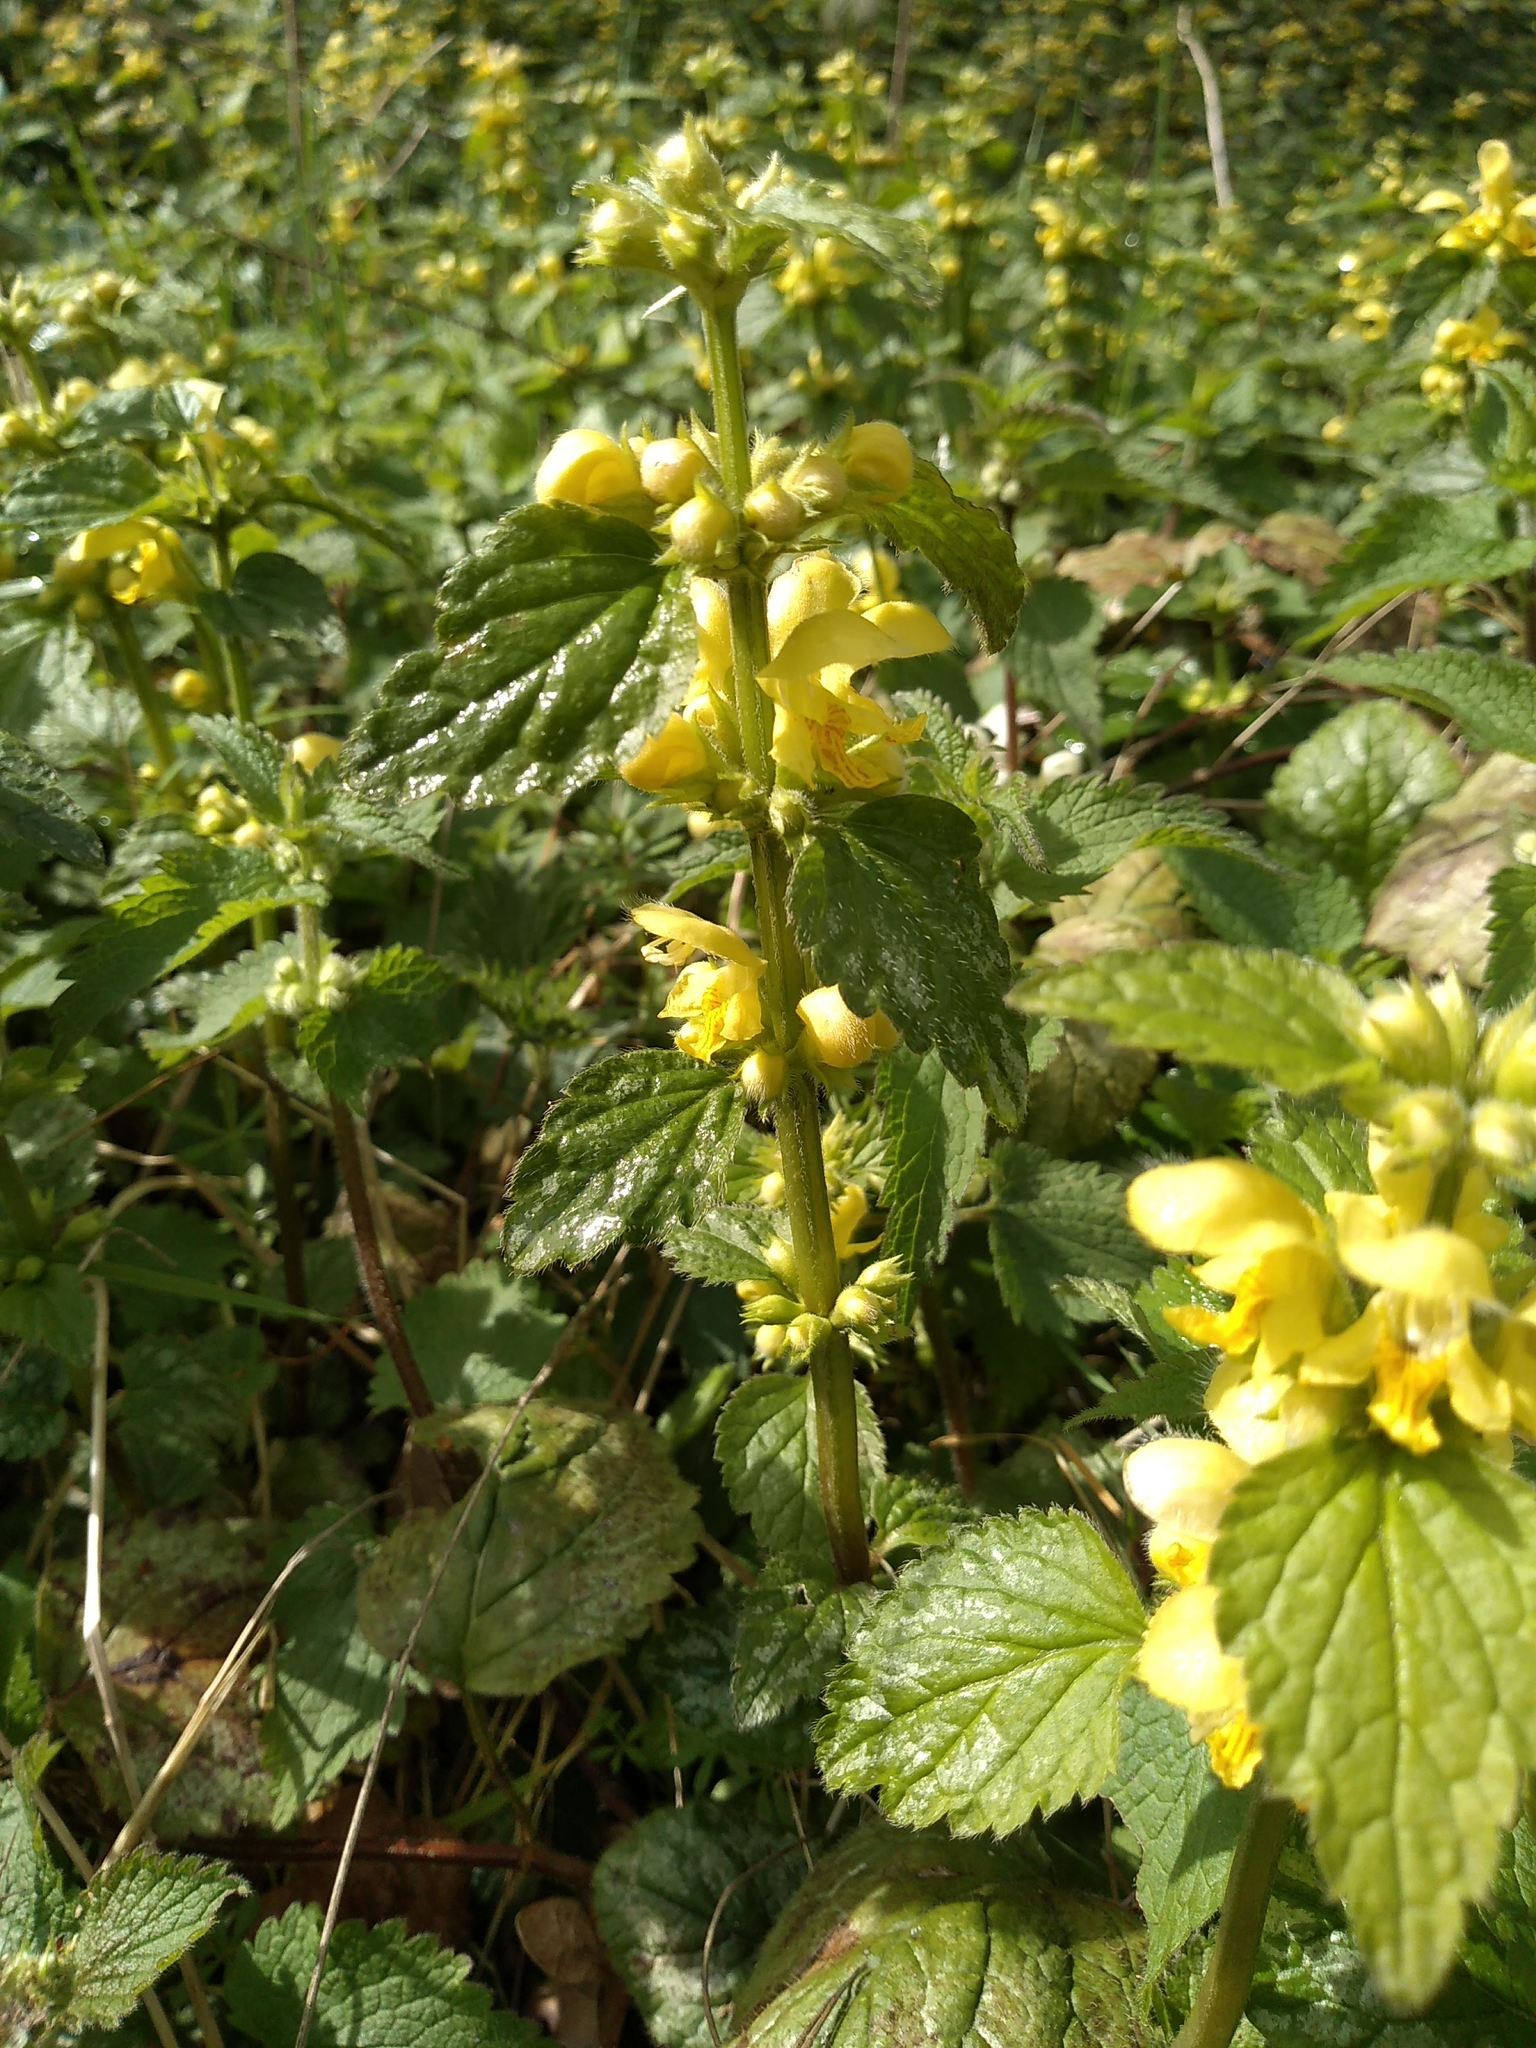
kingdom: Plantae
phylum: Tracheophyta
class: Magnoliopsida
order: Lamiales
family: Lamiaceae
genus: Lamium
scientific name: Lamium galeobdolon
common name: Yellow archangel
